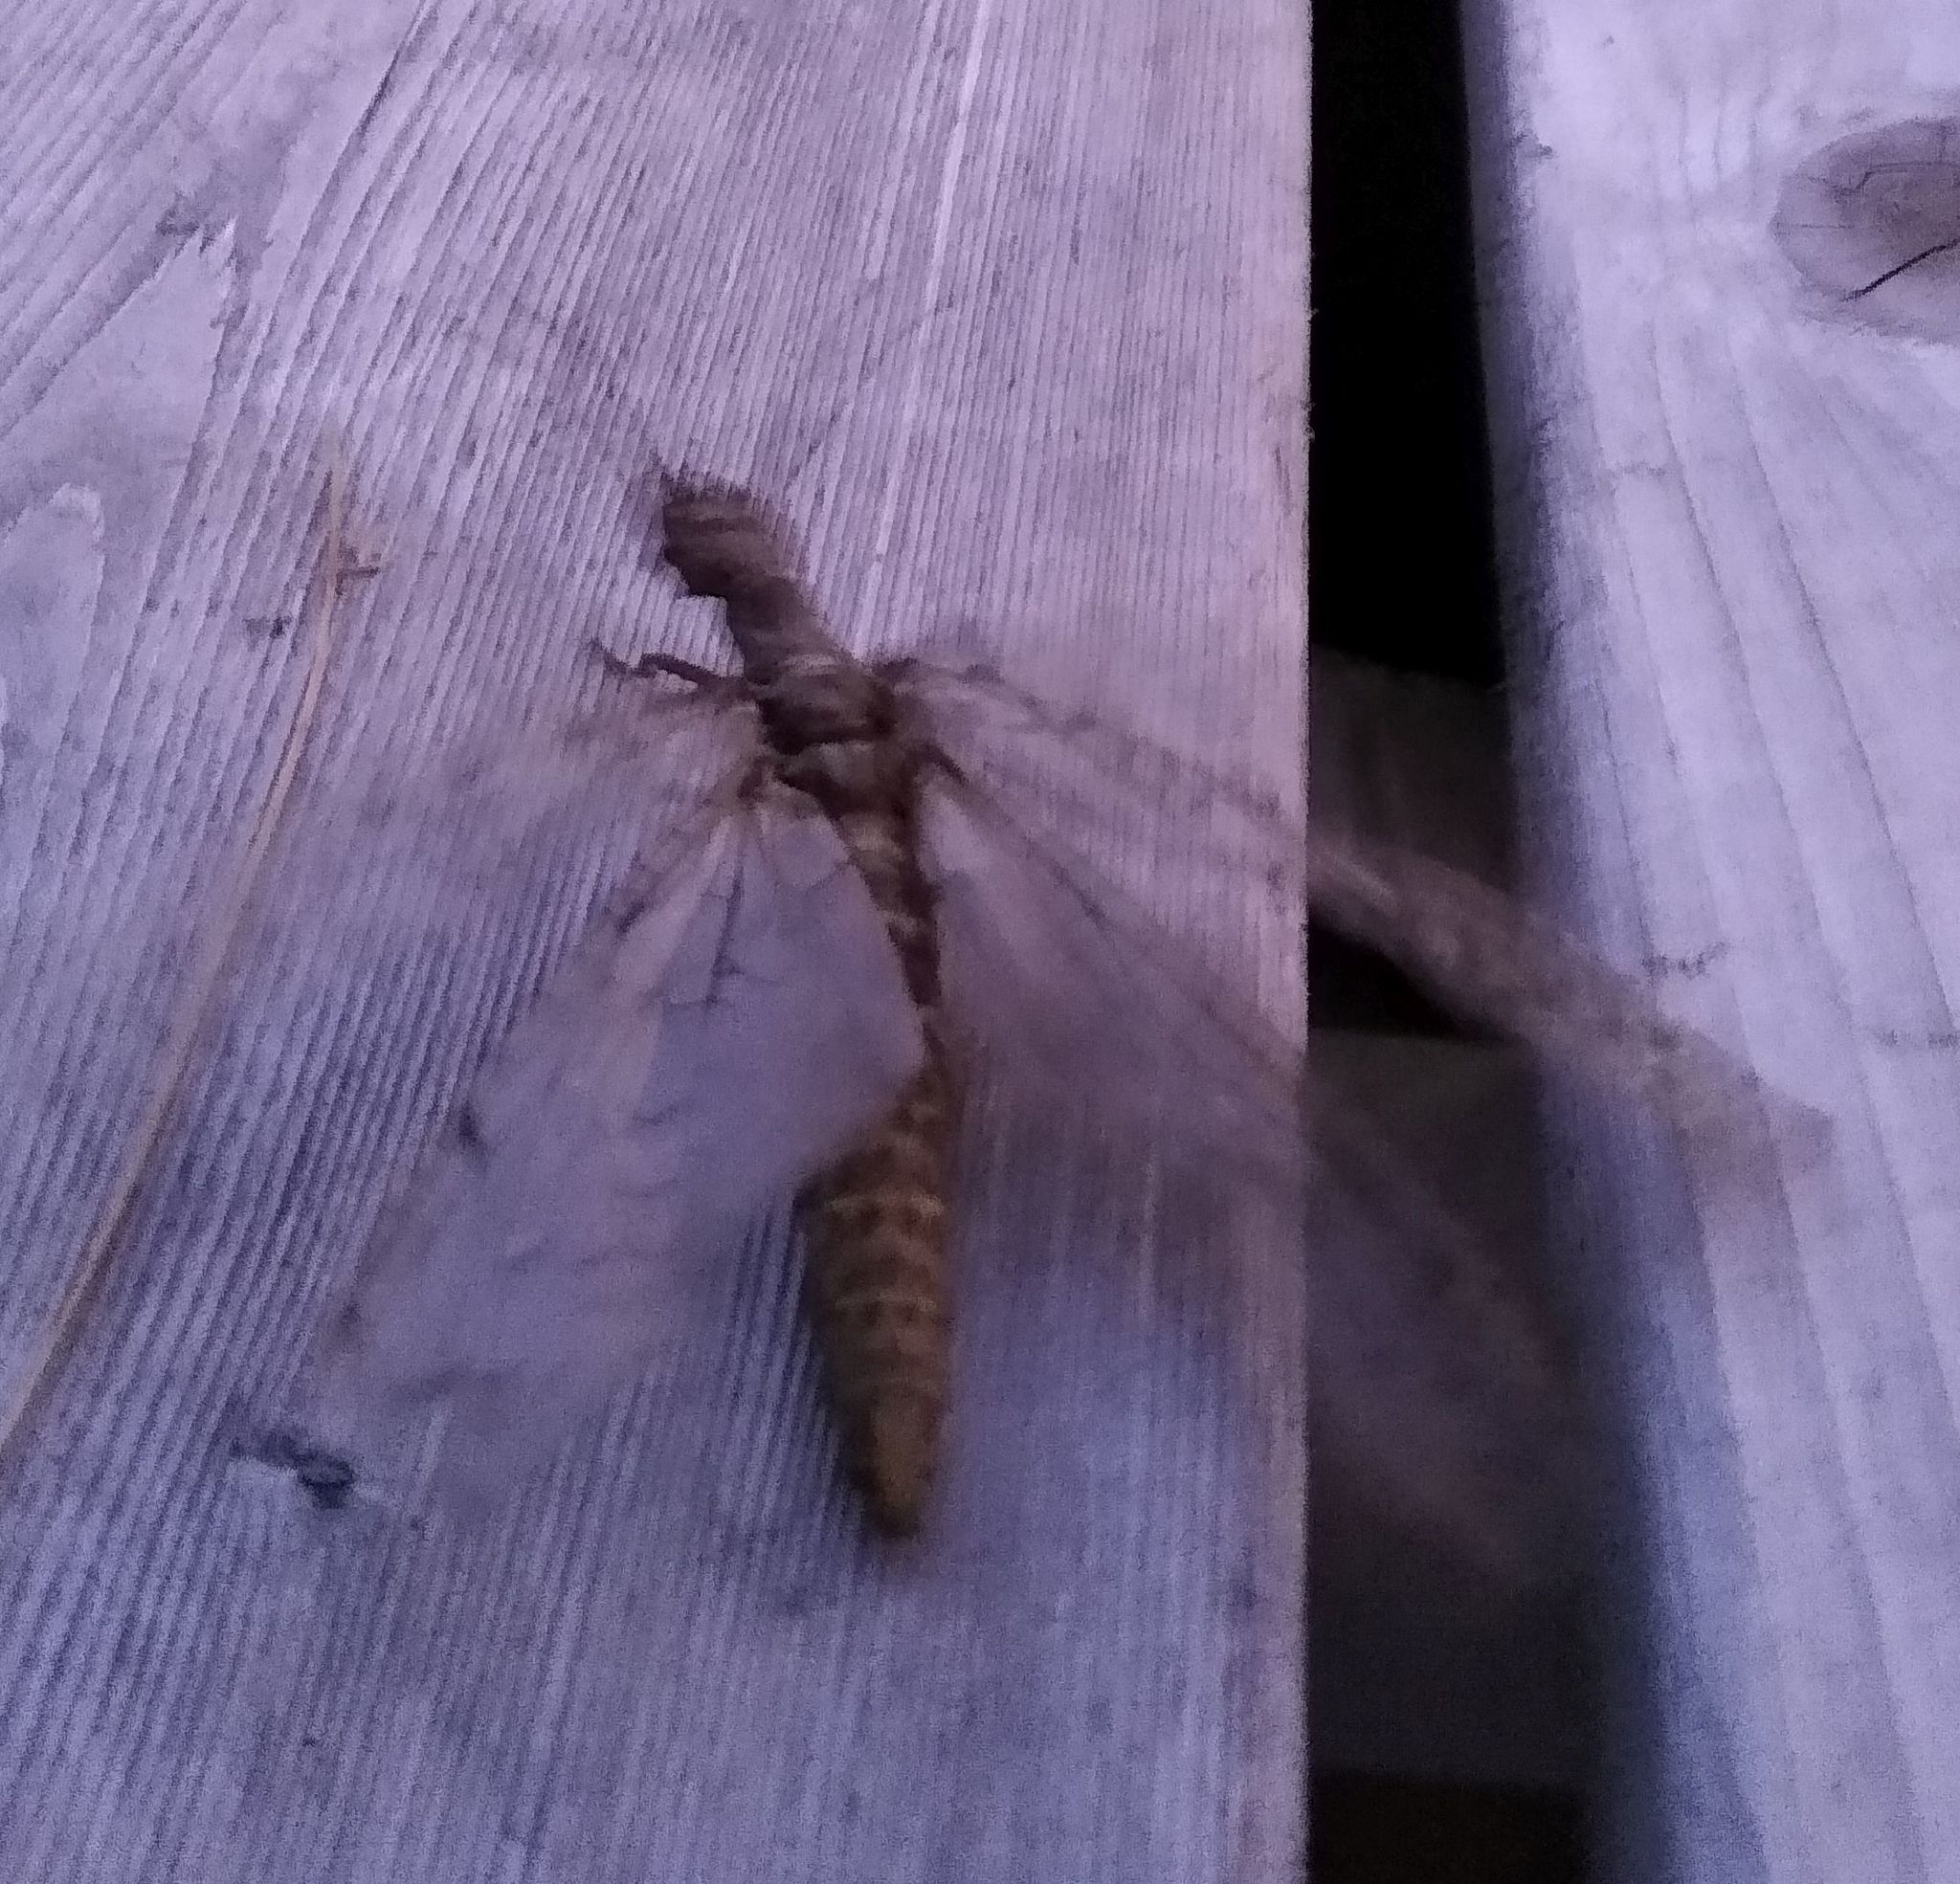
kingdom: Animalia
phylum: Arthropoda
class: Insecta
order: Megaloptera
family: Corydalidae
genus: Corydalus
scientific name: Corydalus cornutus
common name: Dobsonfly
